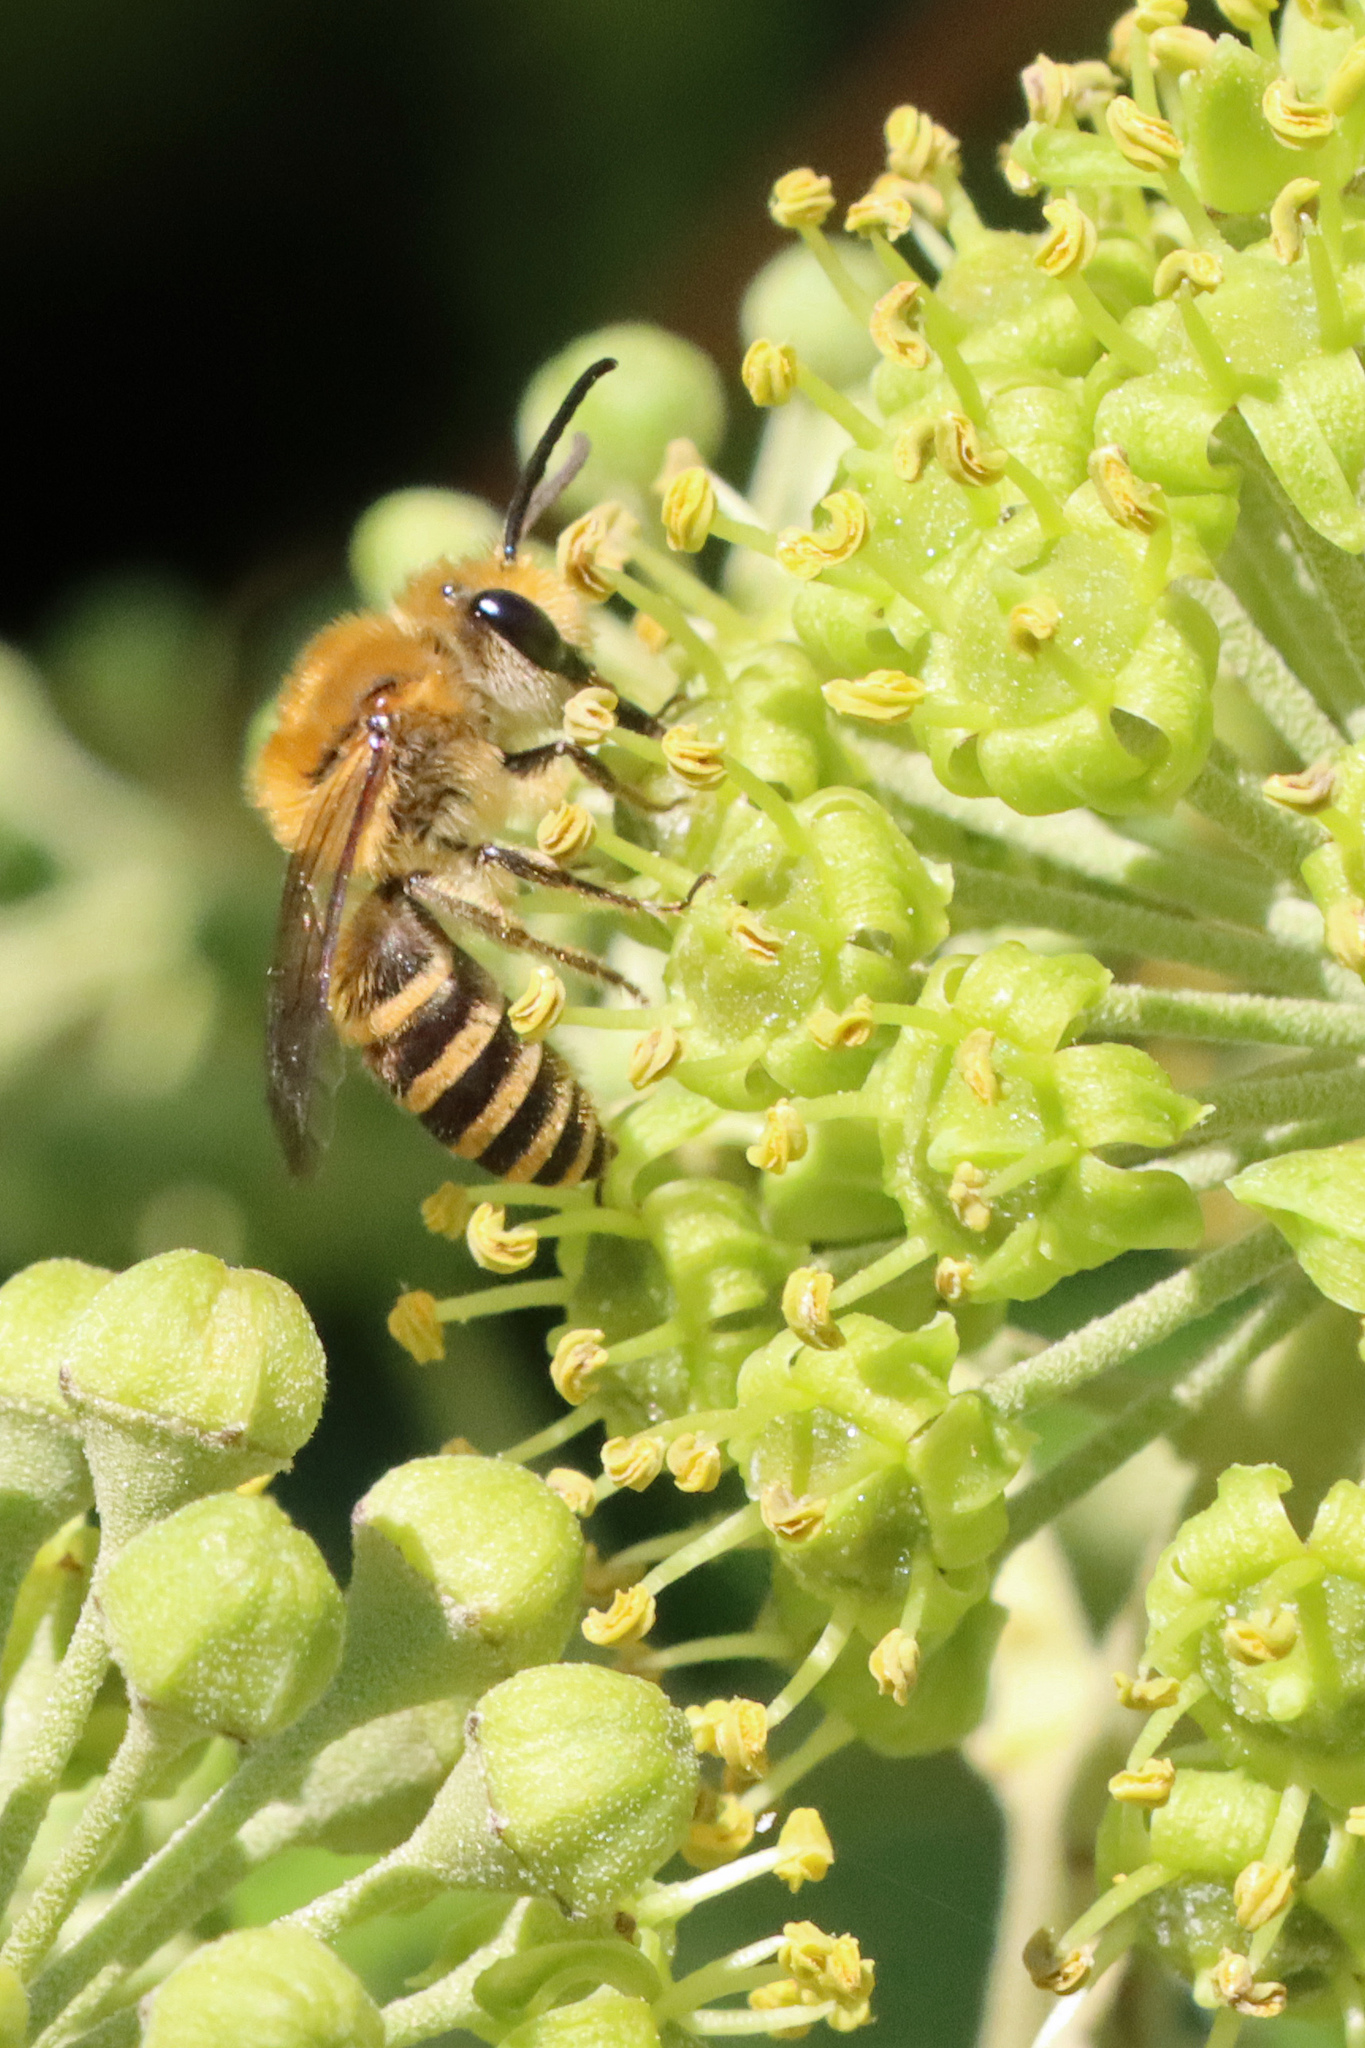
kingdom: Animalia
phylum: Arthropoda
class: Insecta
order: Hymenoptera
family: Colletidae
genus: Colletes
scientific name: Colletes hederae
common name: Ivy bee
